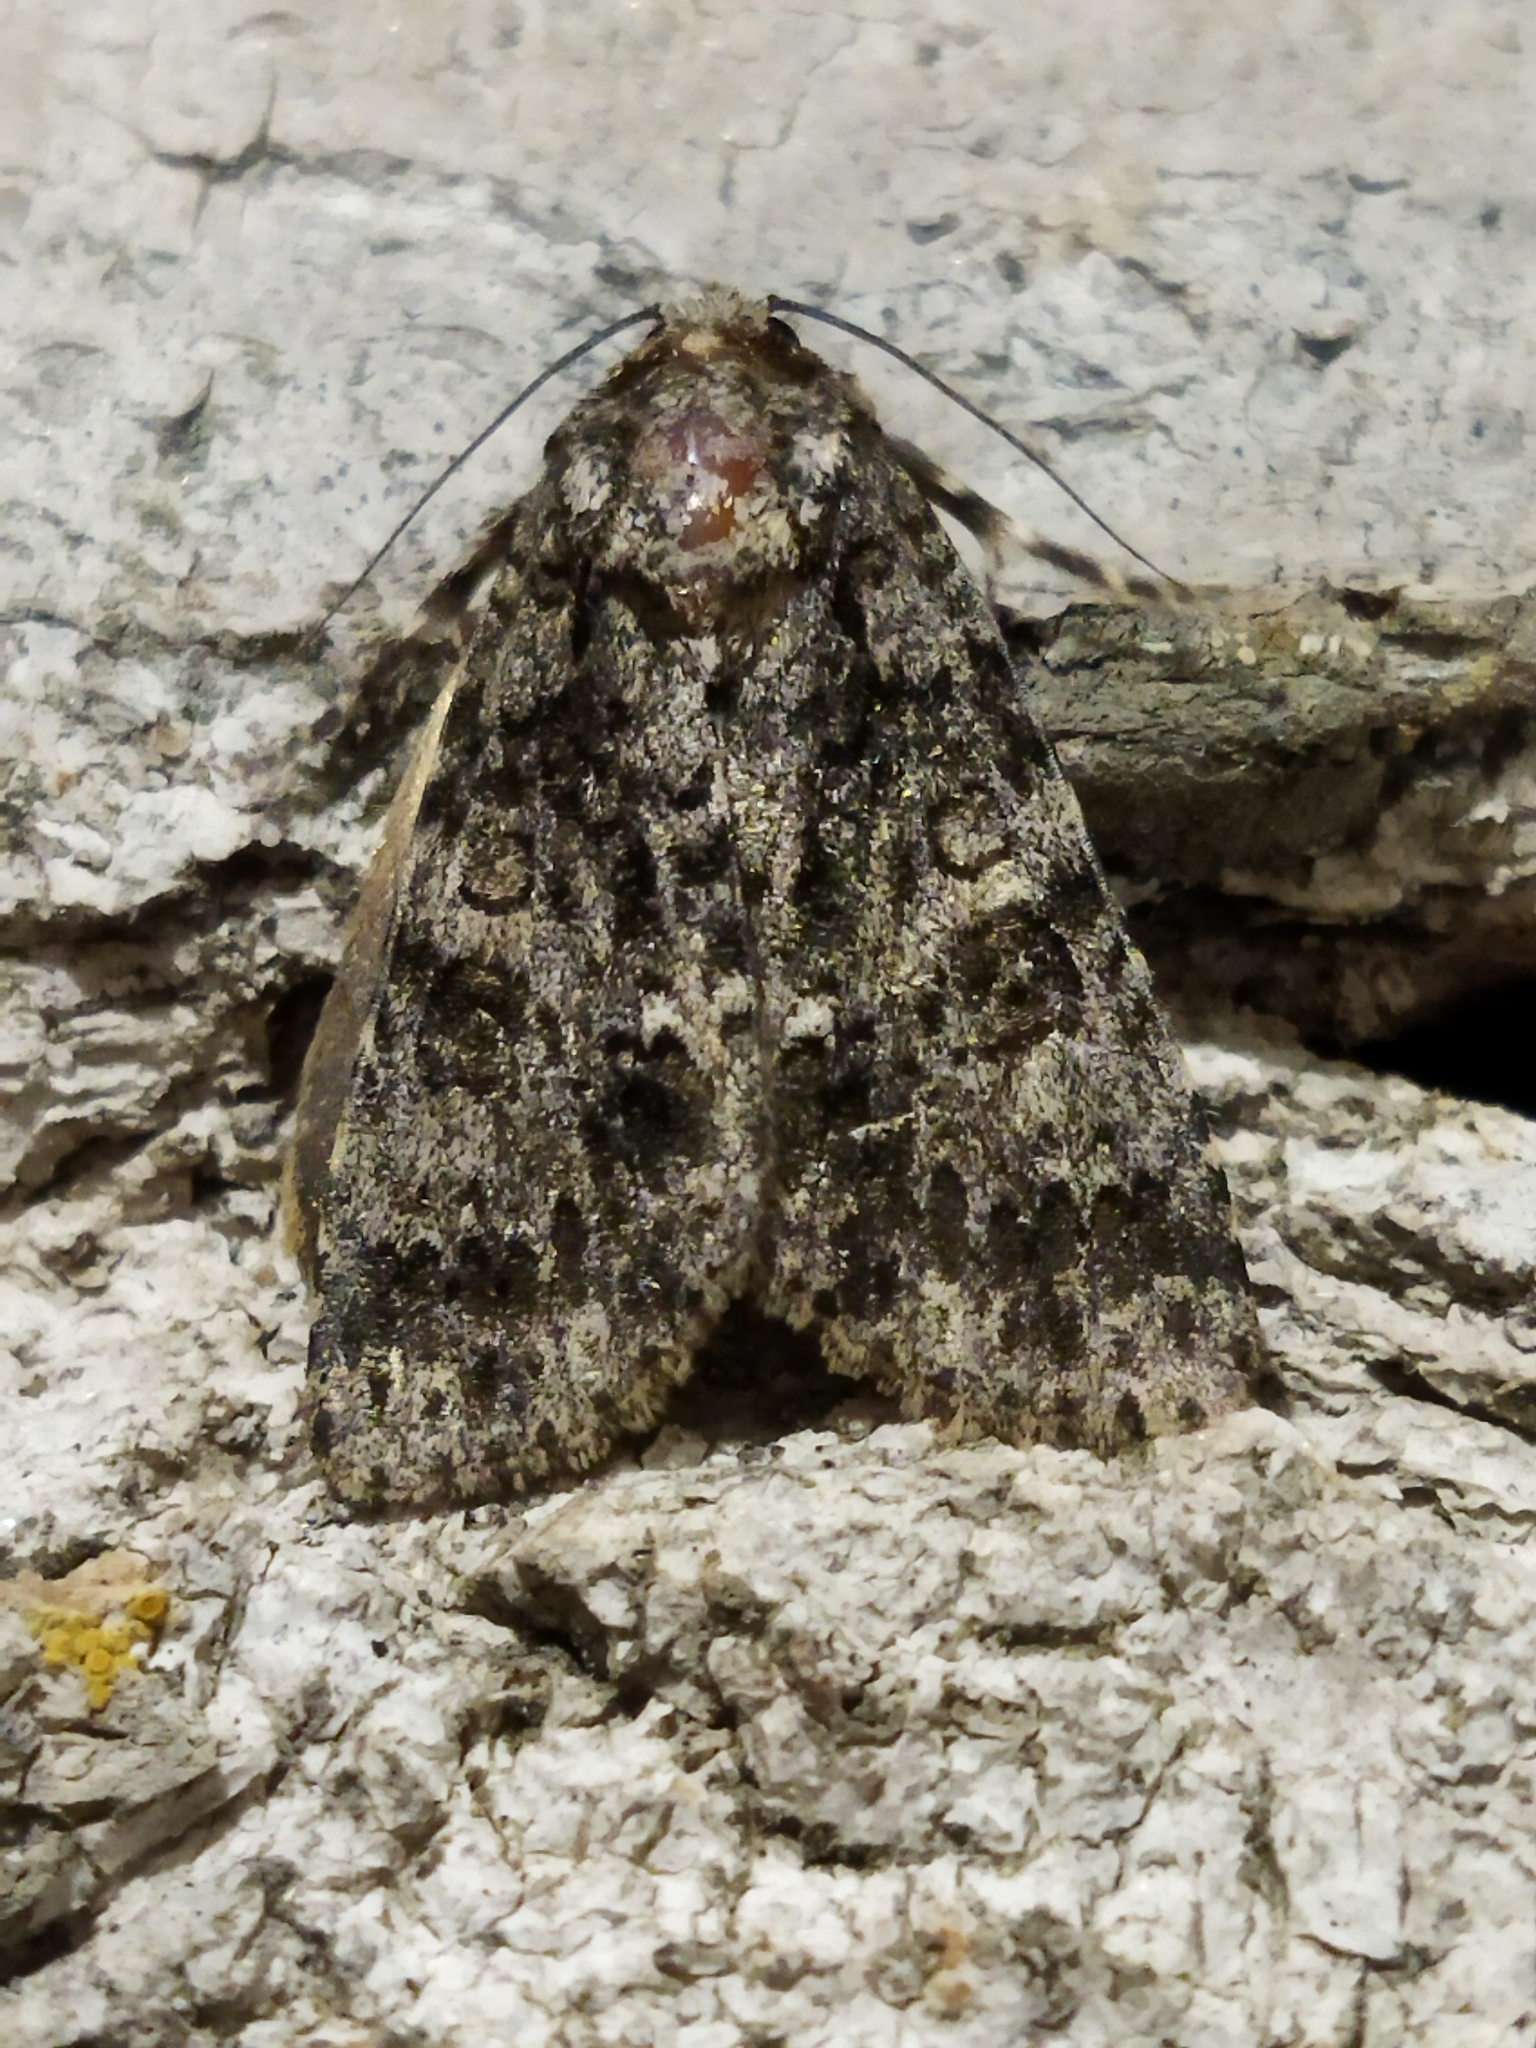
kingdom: Animalia
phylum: Arthropoda
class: Insecta
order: Lepidoptera
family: Noctuidae
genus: Acronicta
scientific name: Acronicta rumicis
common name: Knot grass
